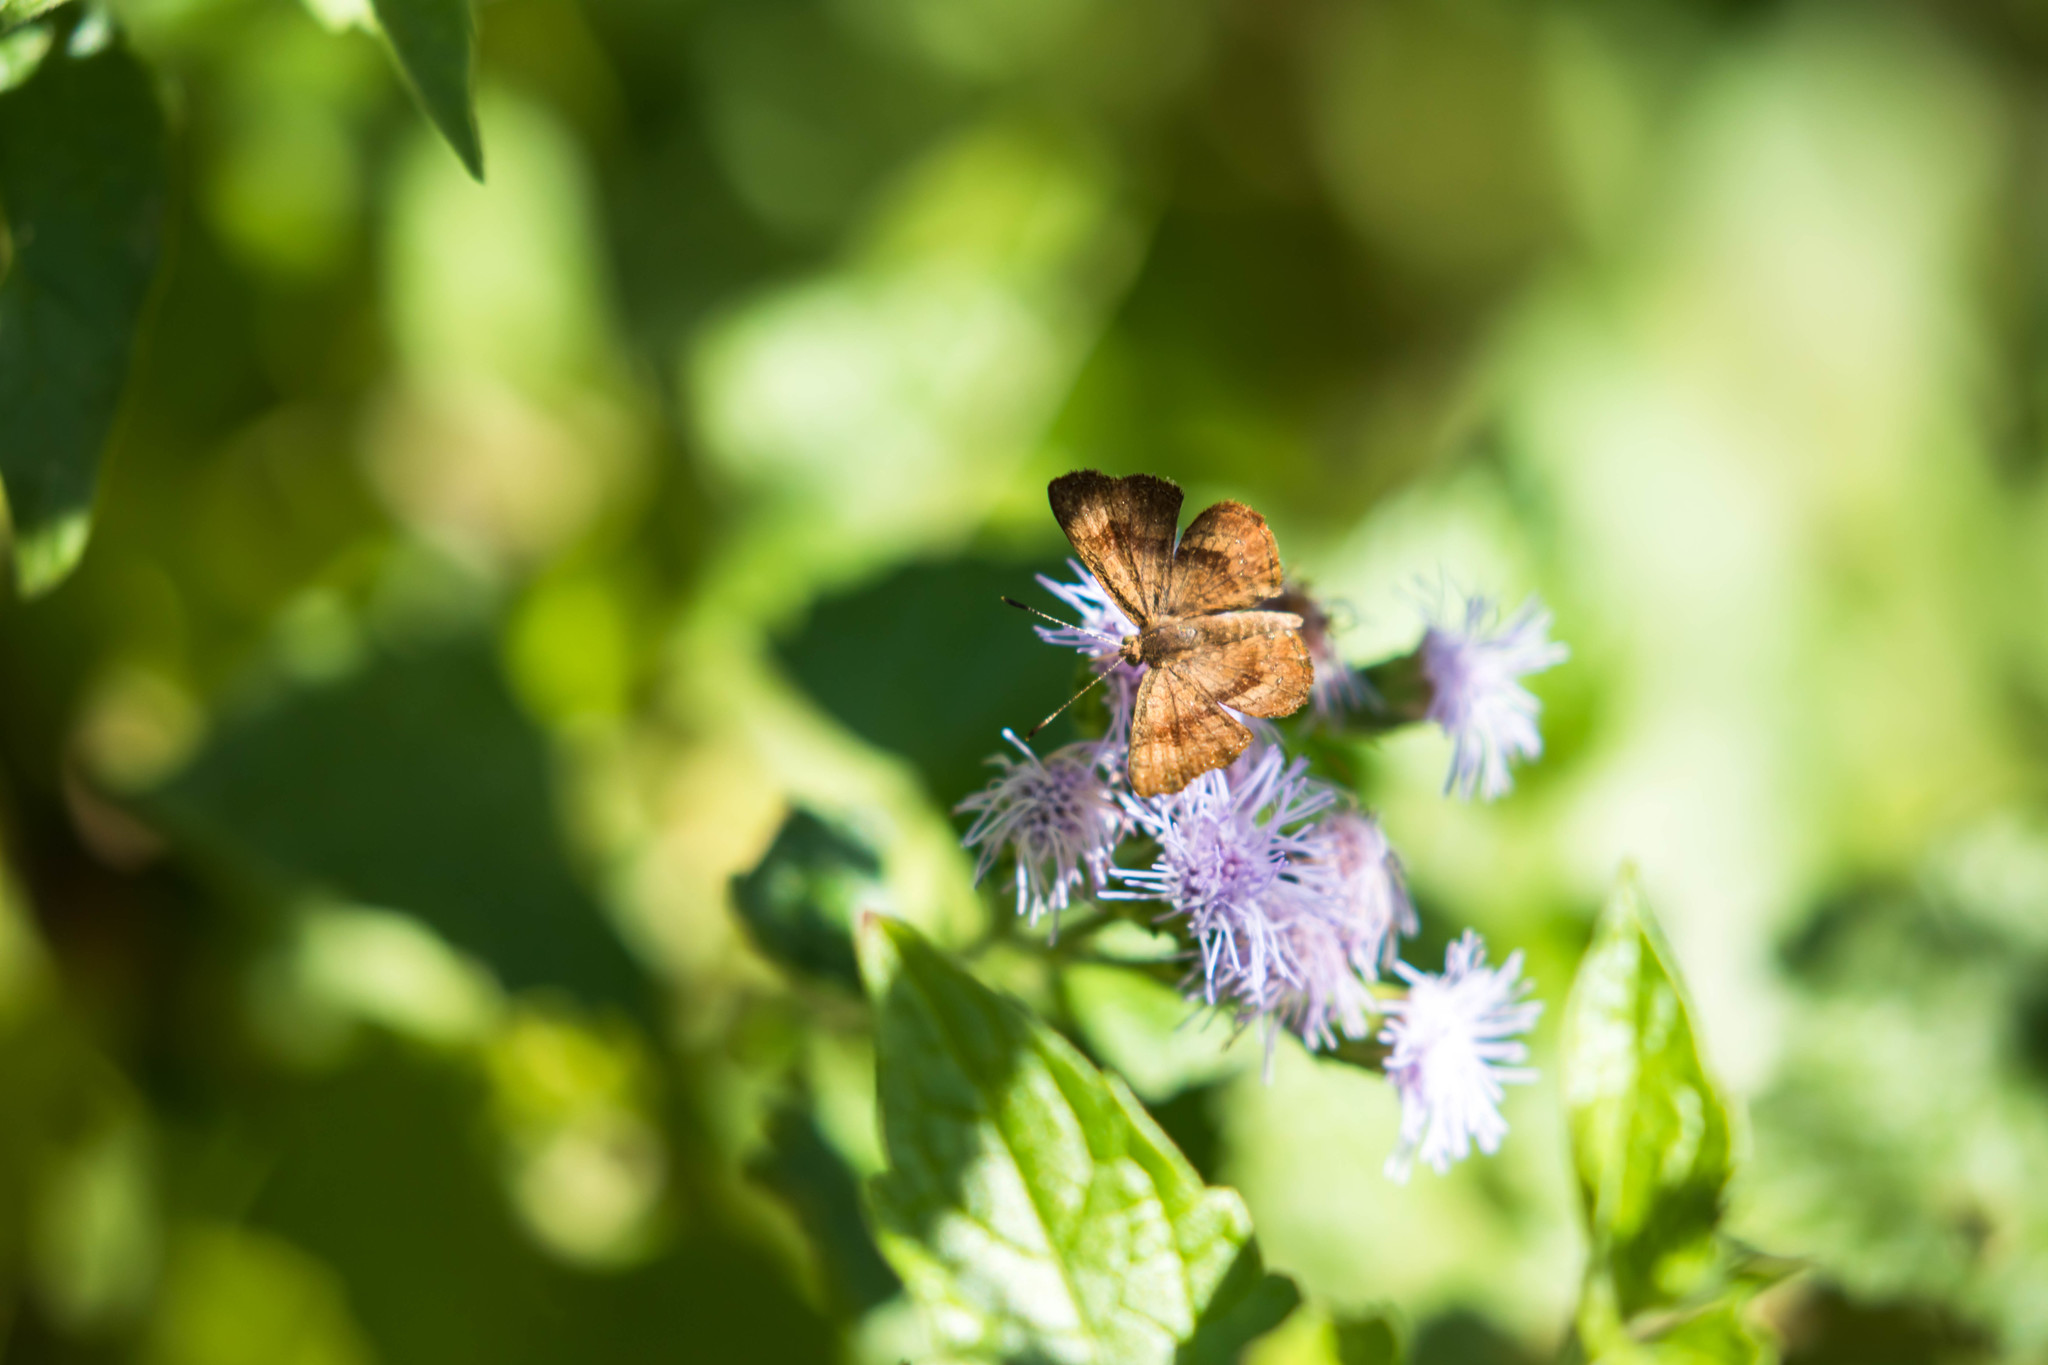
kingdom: Animalia
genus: Calephelis
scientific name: Calephelis nemesis
